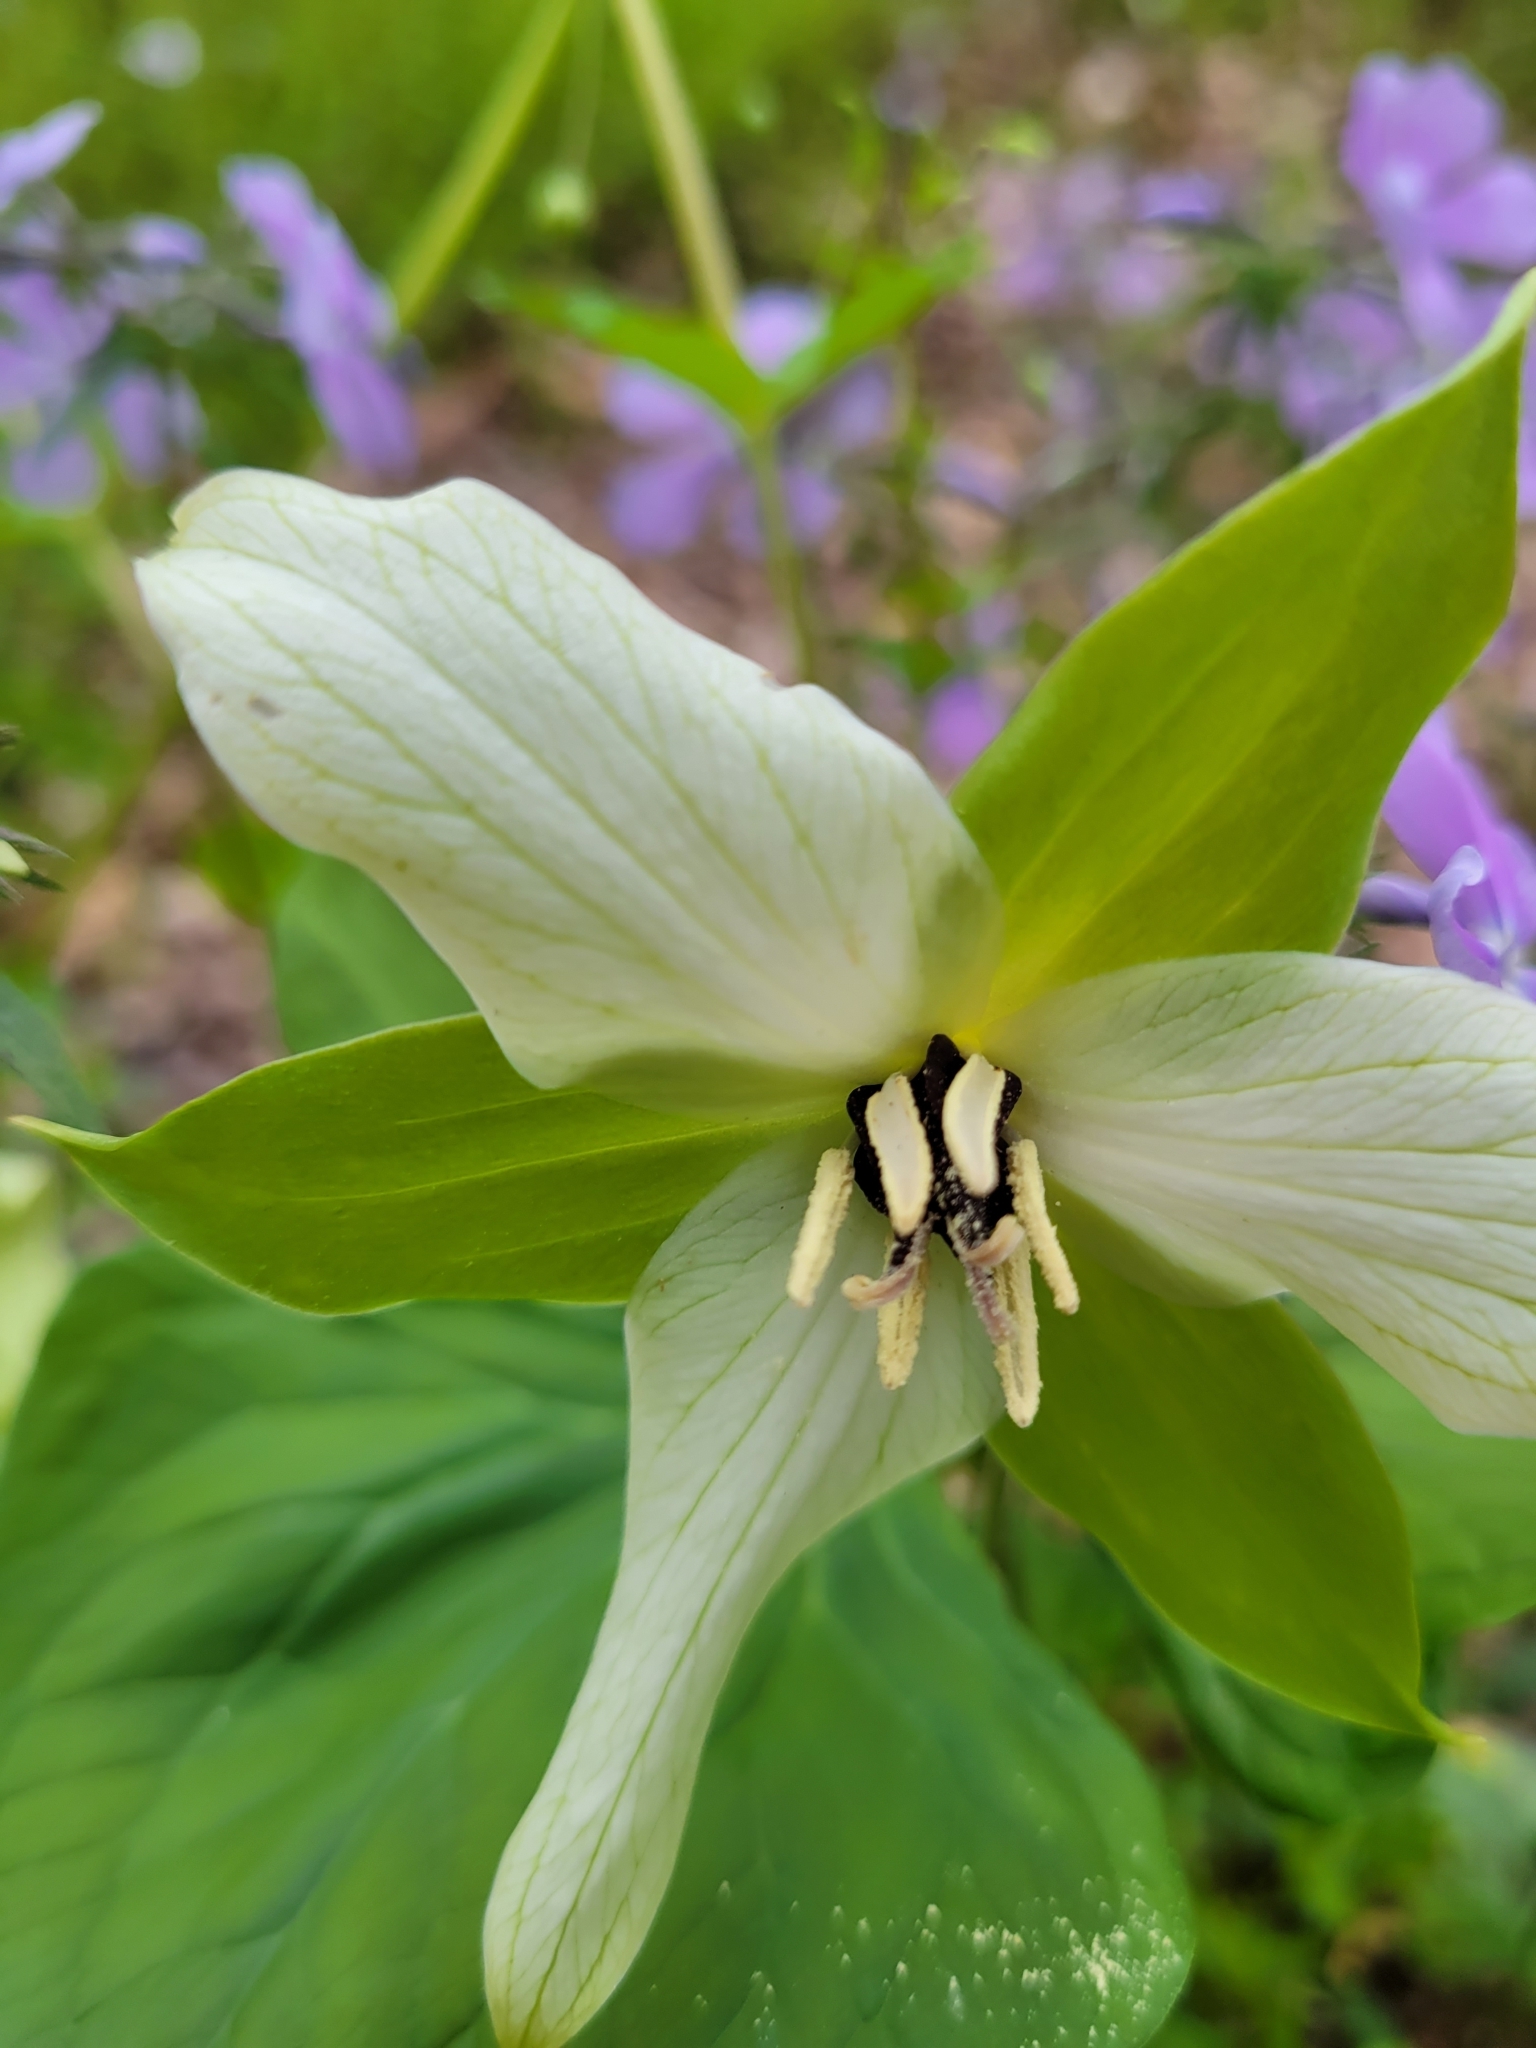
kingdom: Plantae
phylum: Tracheophyta
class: Liliopsida
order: Liliales
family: Melanthiaceae
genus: Trillium
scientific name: Trillium erectum
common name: Purple trillium
